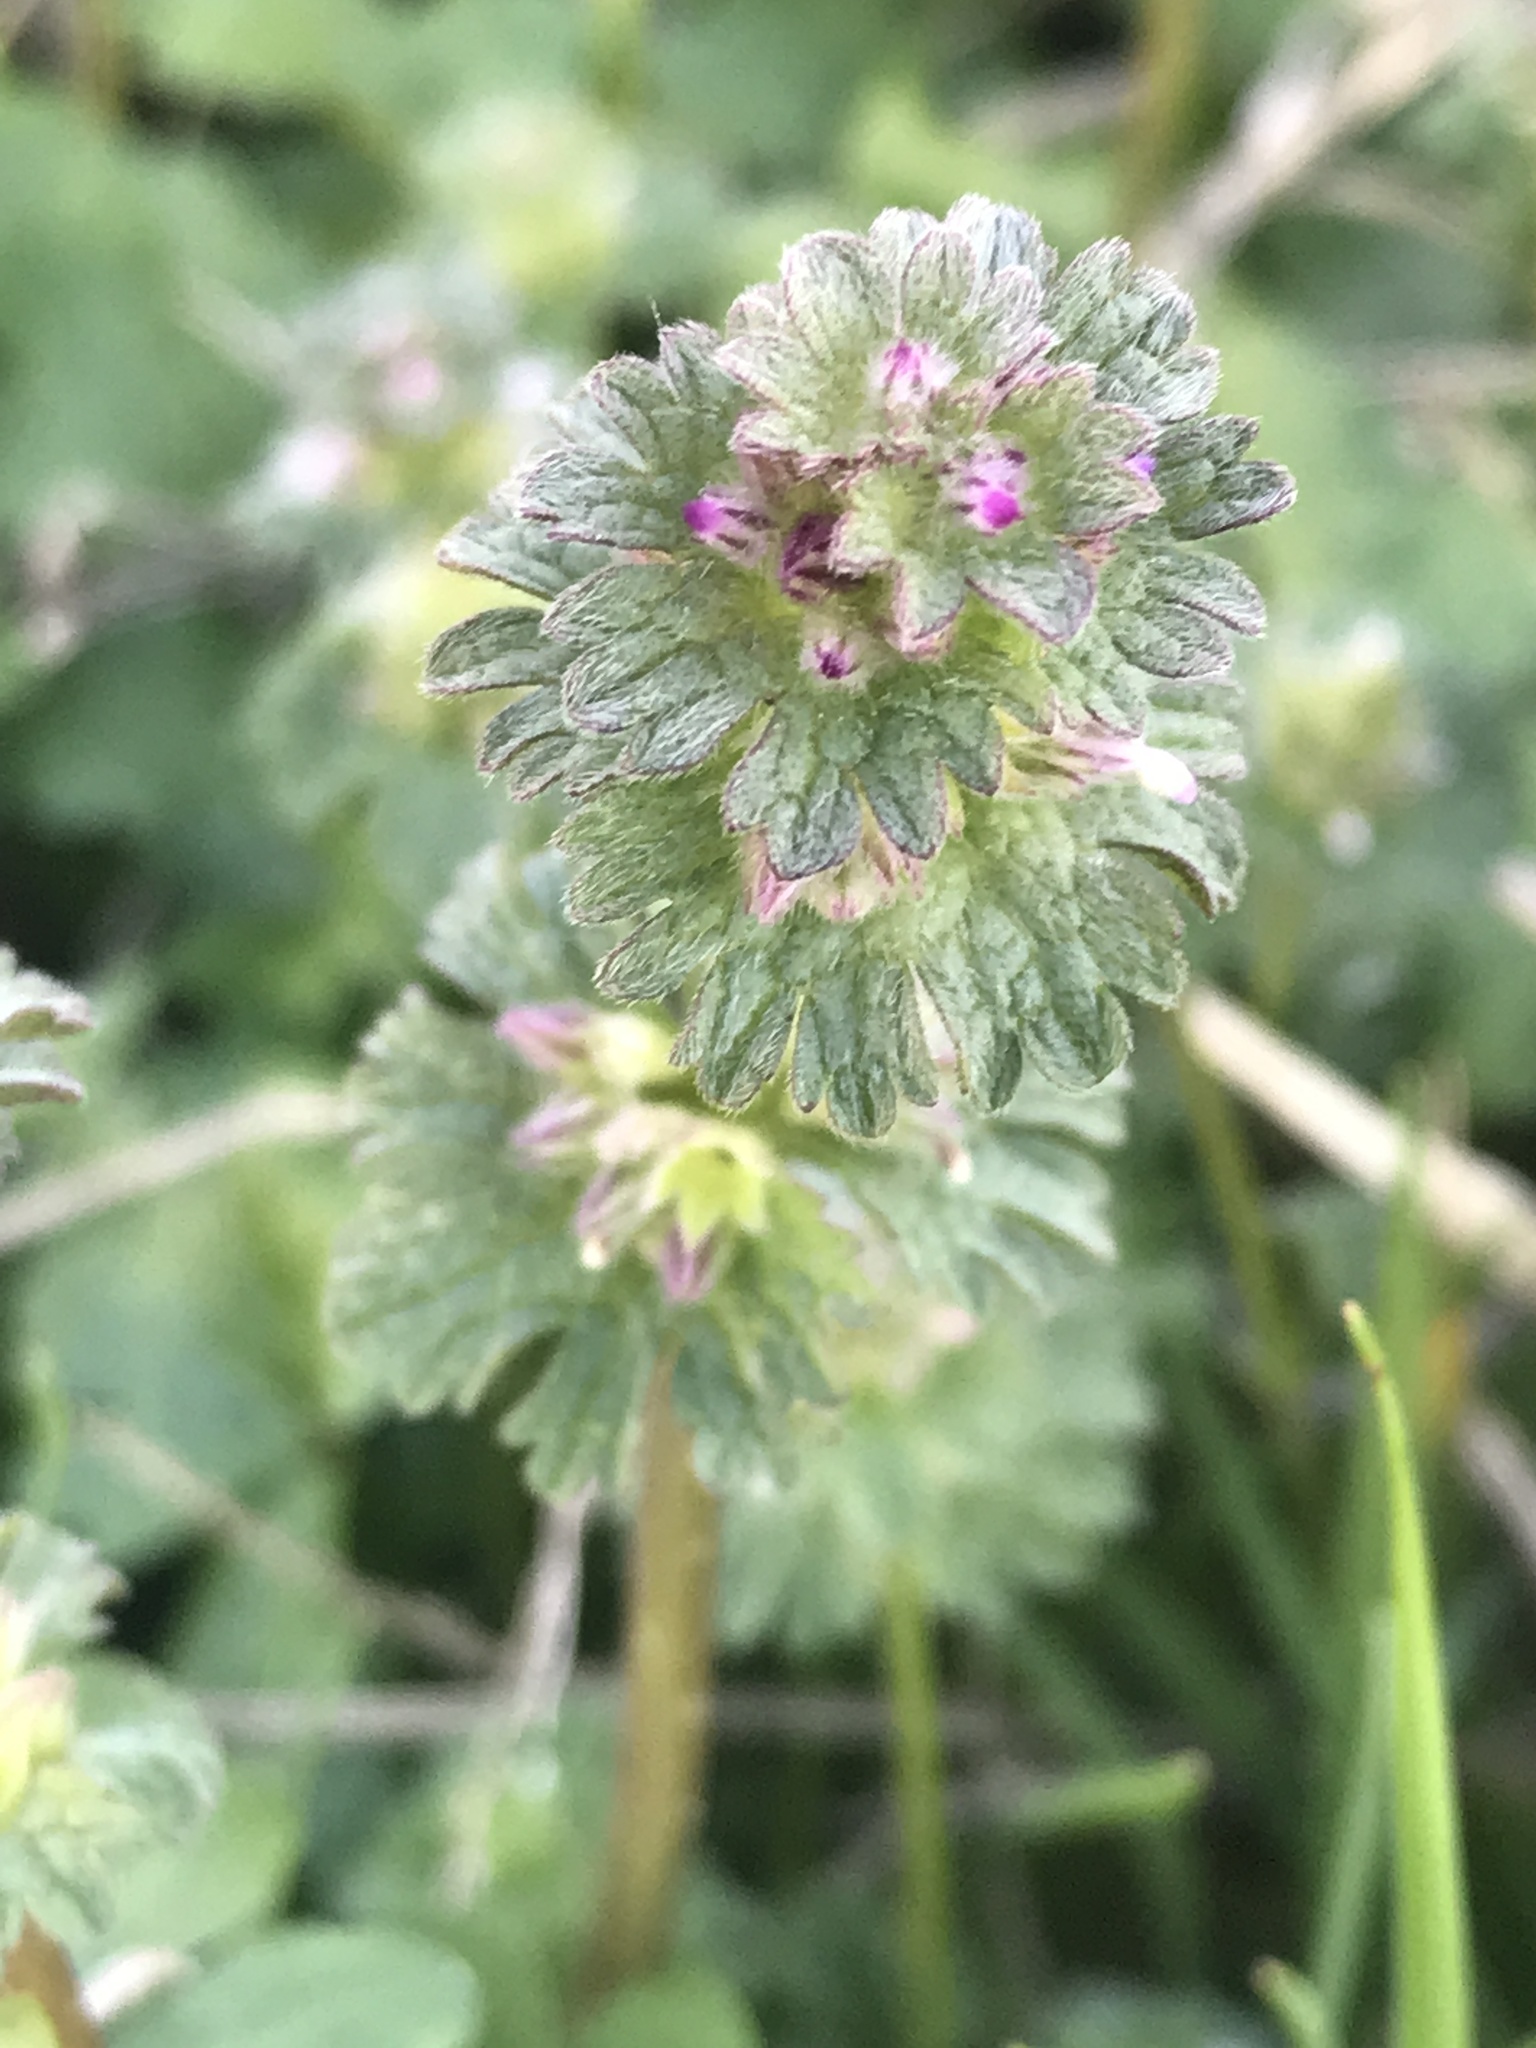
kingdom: Plantae
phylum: Tracheophyta
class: Magnoliopsida
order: Lamiales
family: Lamiaceae
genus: Lamium
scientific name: Lamium amplexicaule
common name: Henbit dead-nettle
